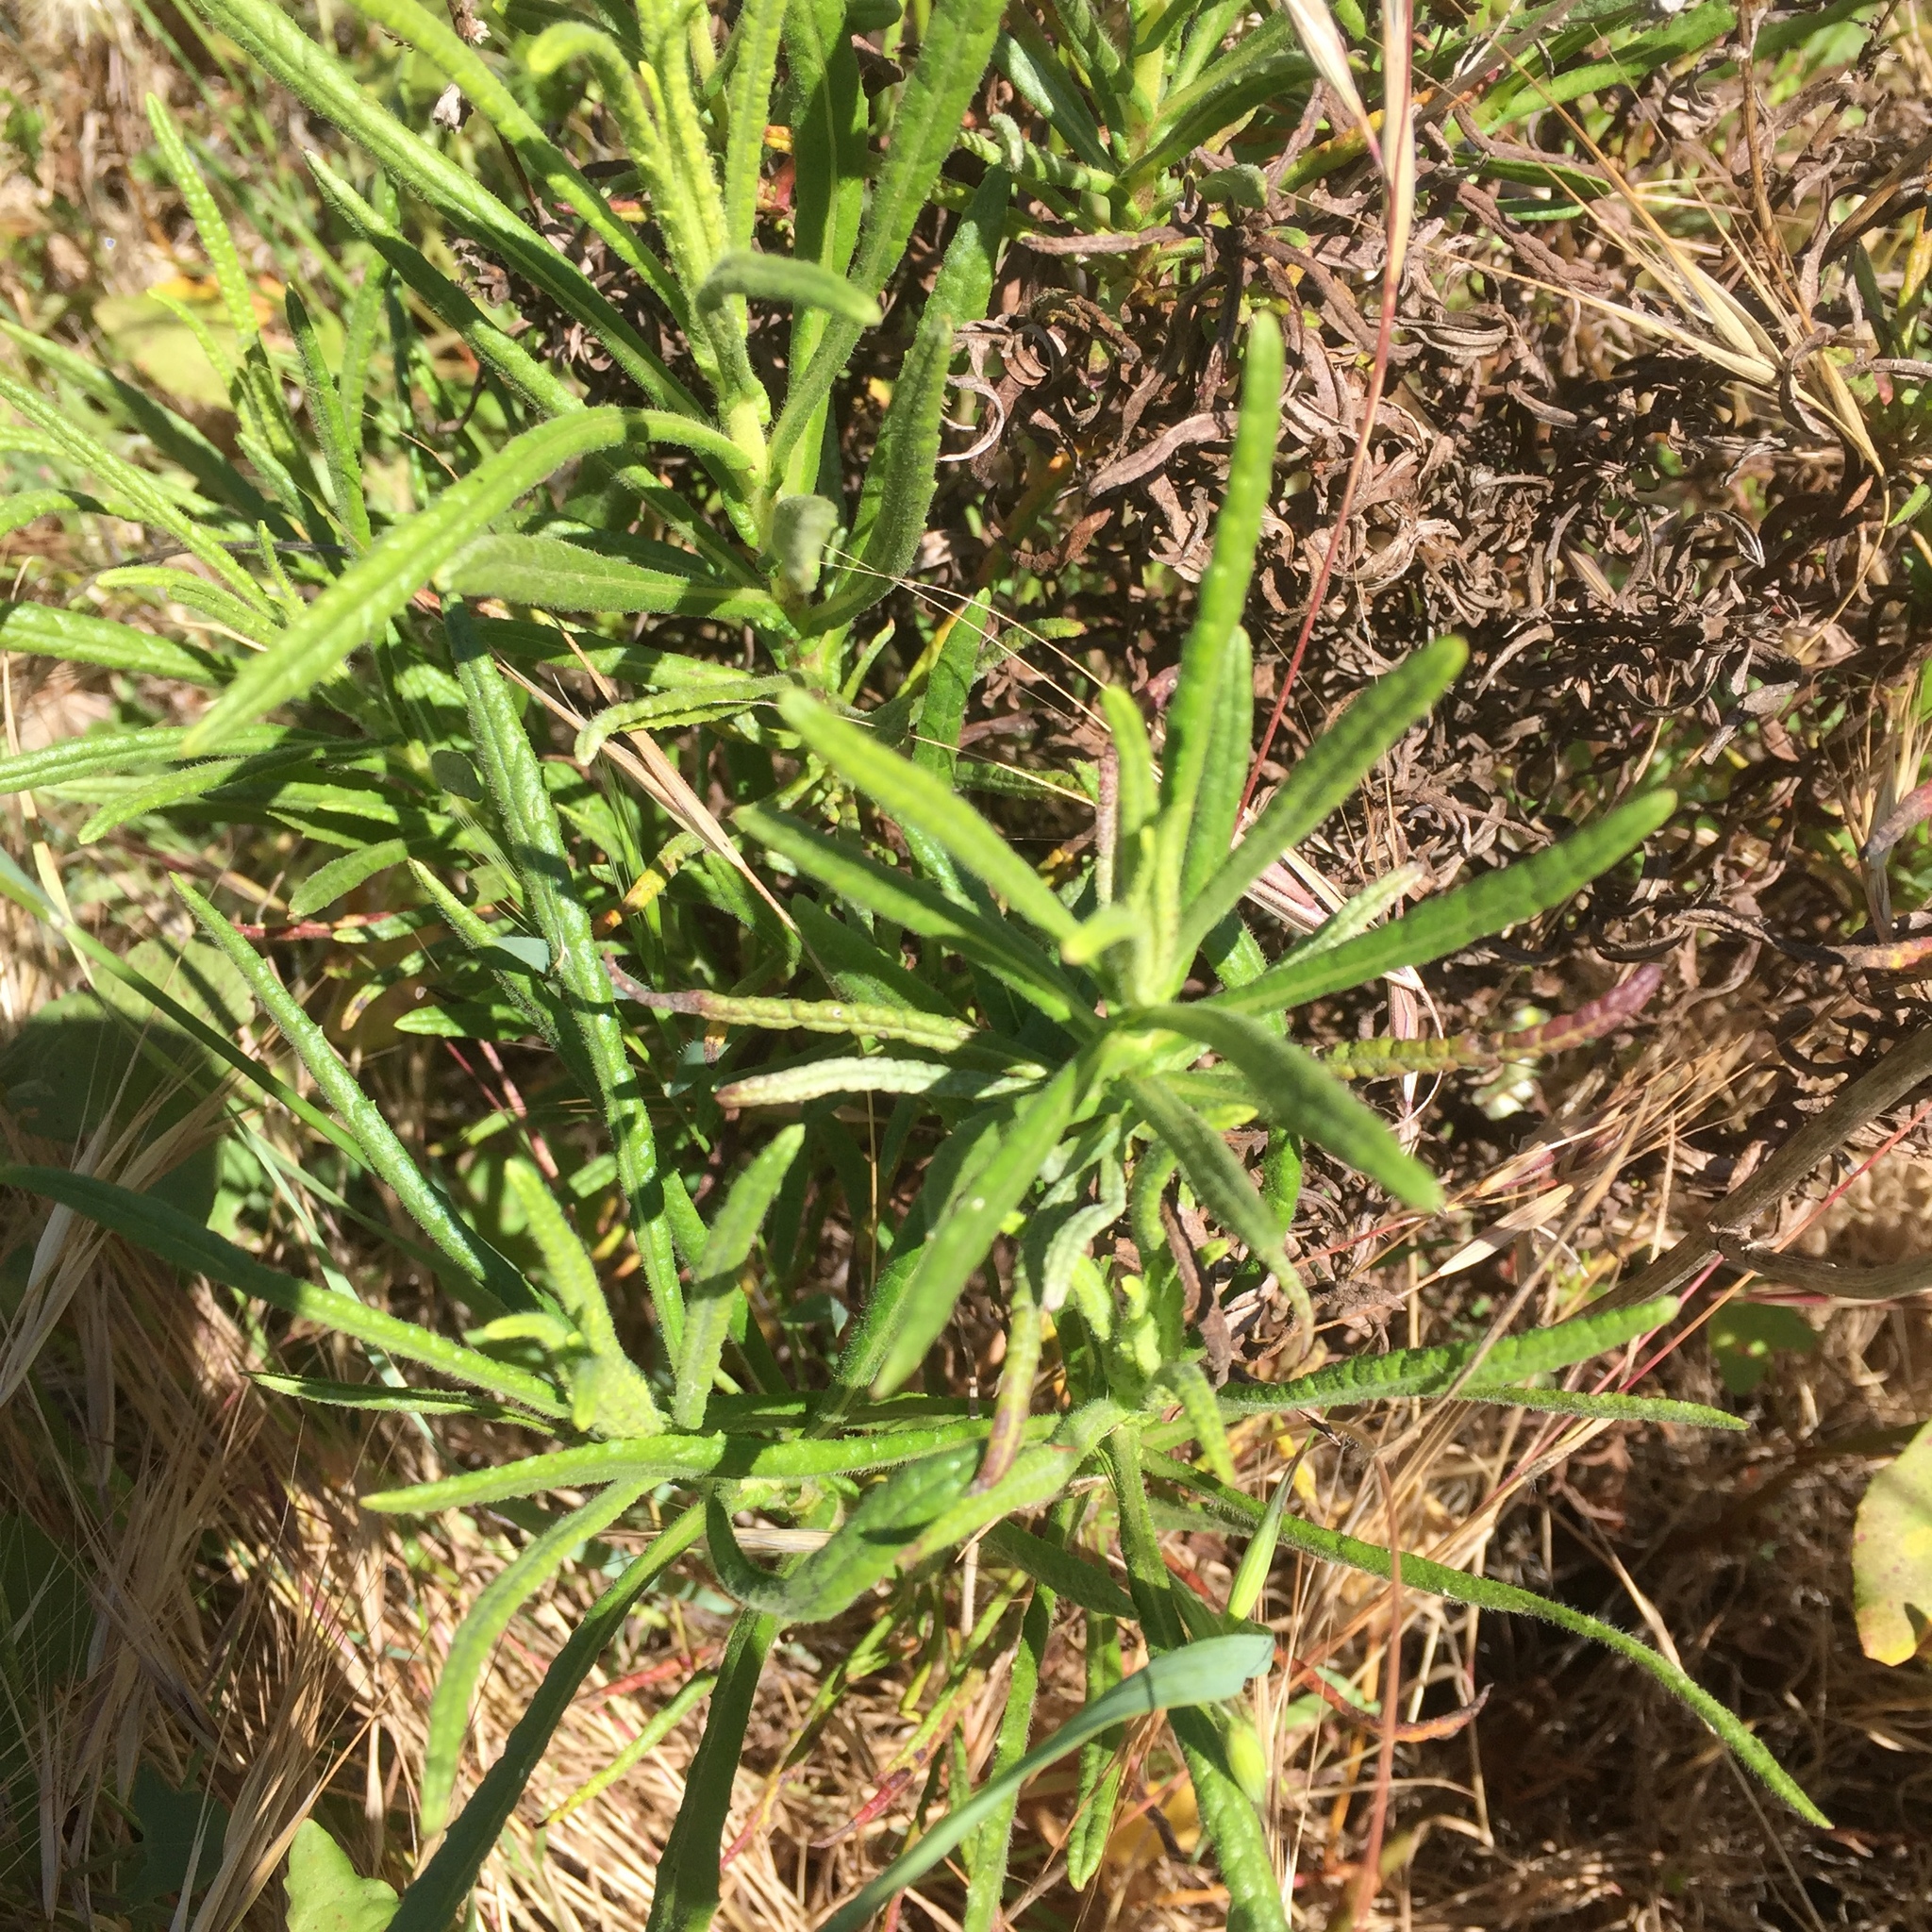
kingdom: Plantae
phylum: Tracheophyta
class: Magnoliopsida
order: Asterales
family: Asteraceae
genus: Dittrichia
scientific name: Dittrichia viscosa
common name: Woody fleabane
